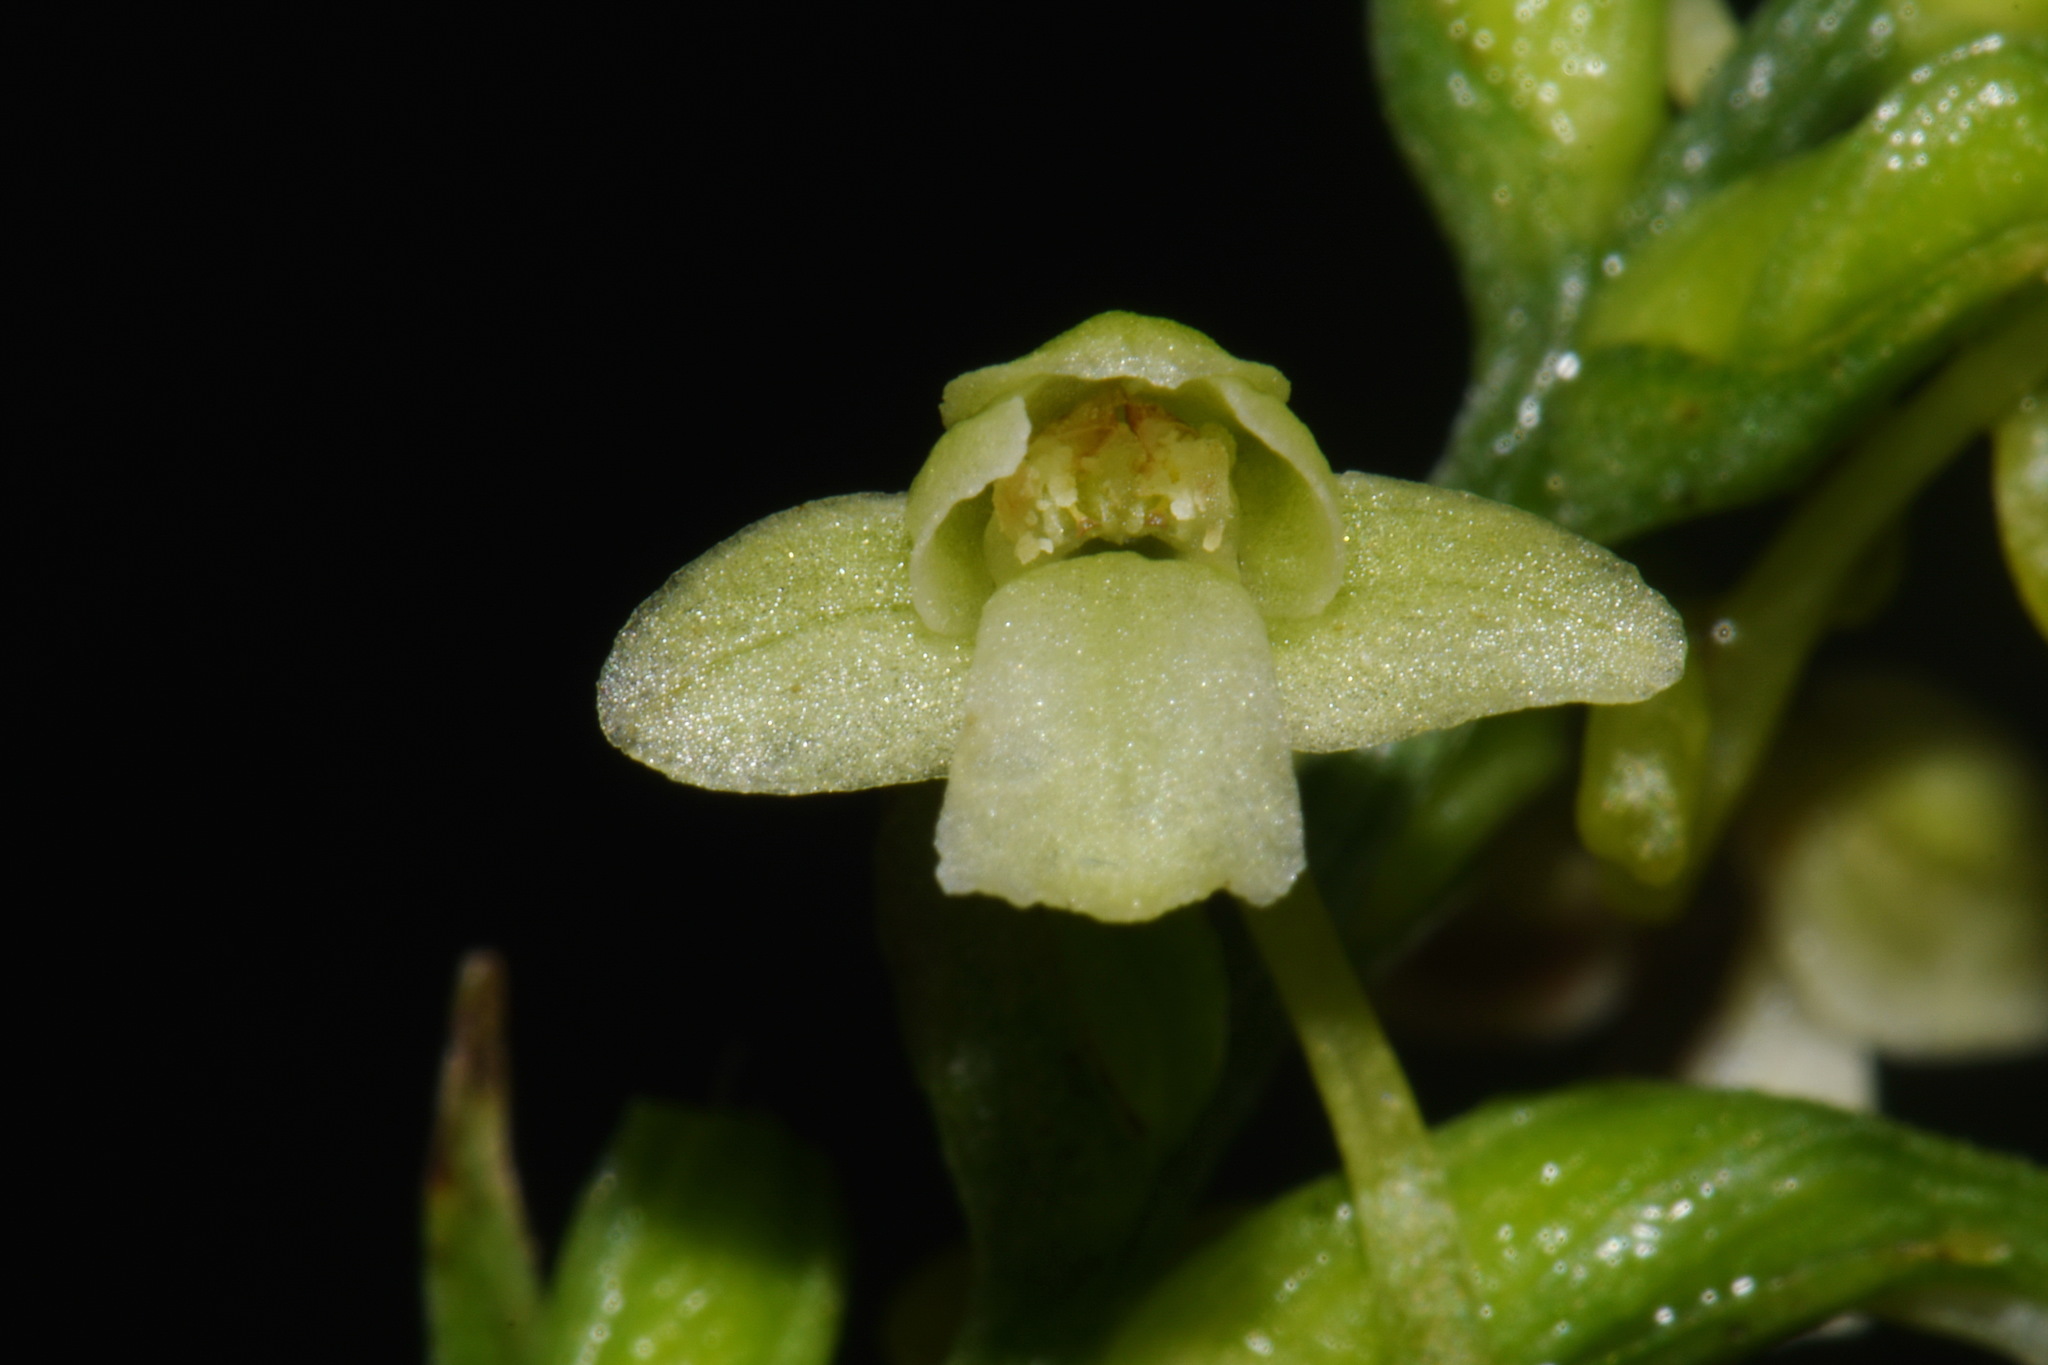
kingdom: Plantae
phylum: Tracheophyta
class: Liliopsida
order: Asparagales
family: Orchidaceae
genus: Platanthera
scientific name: Platanthera clavellata
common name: Club-spur orchid
